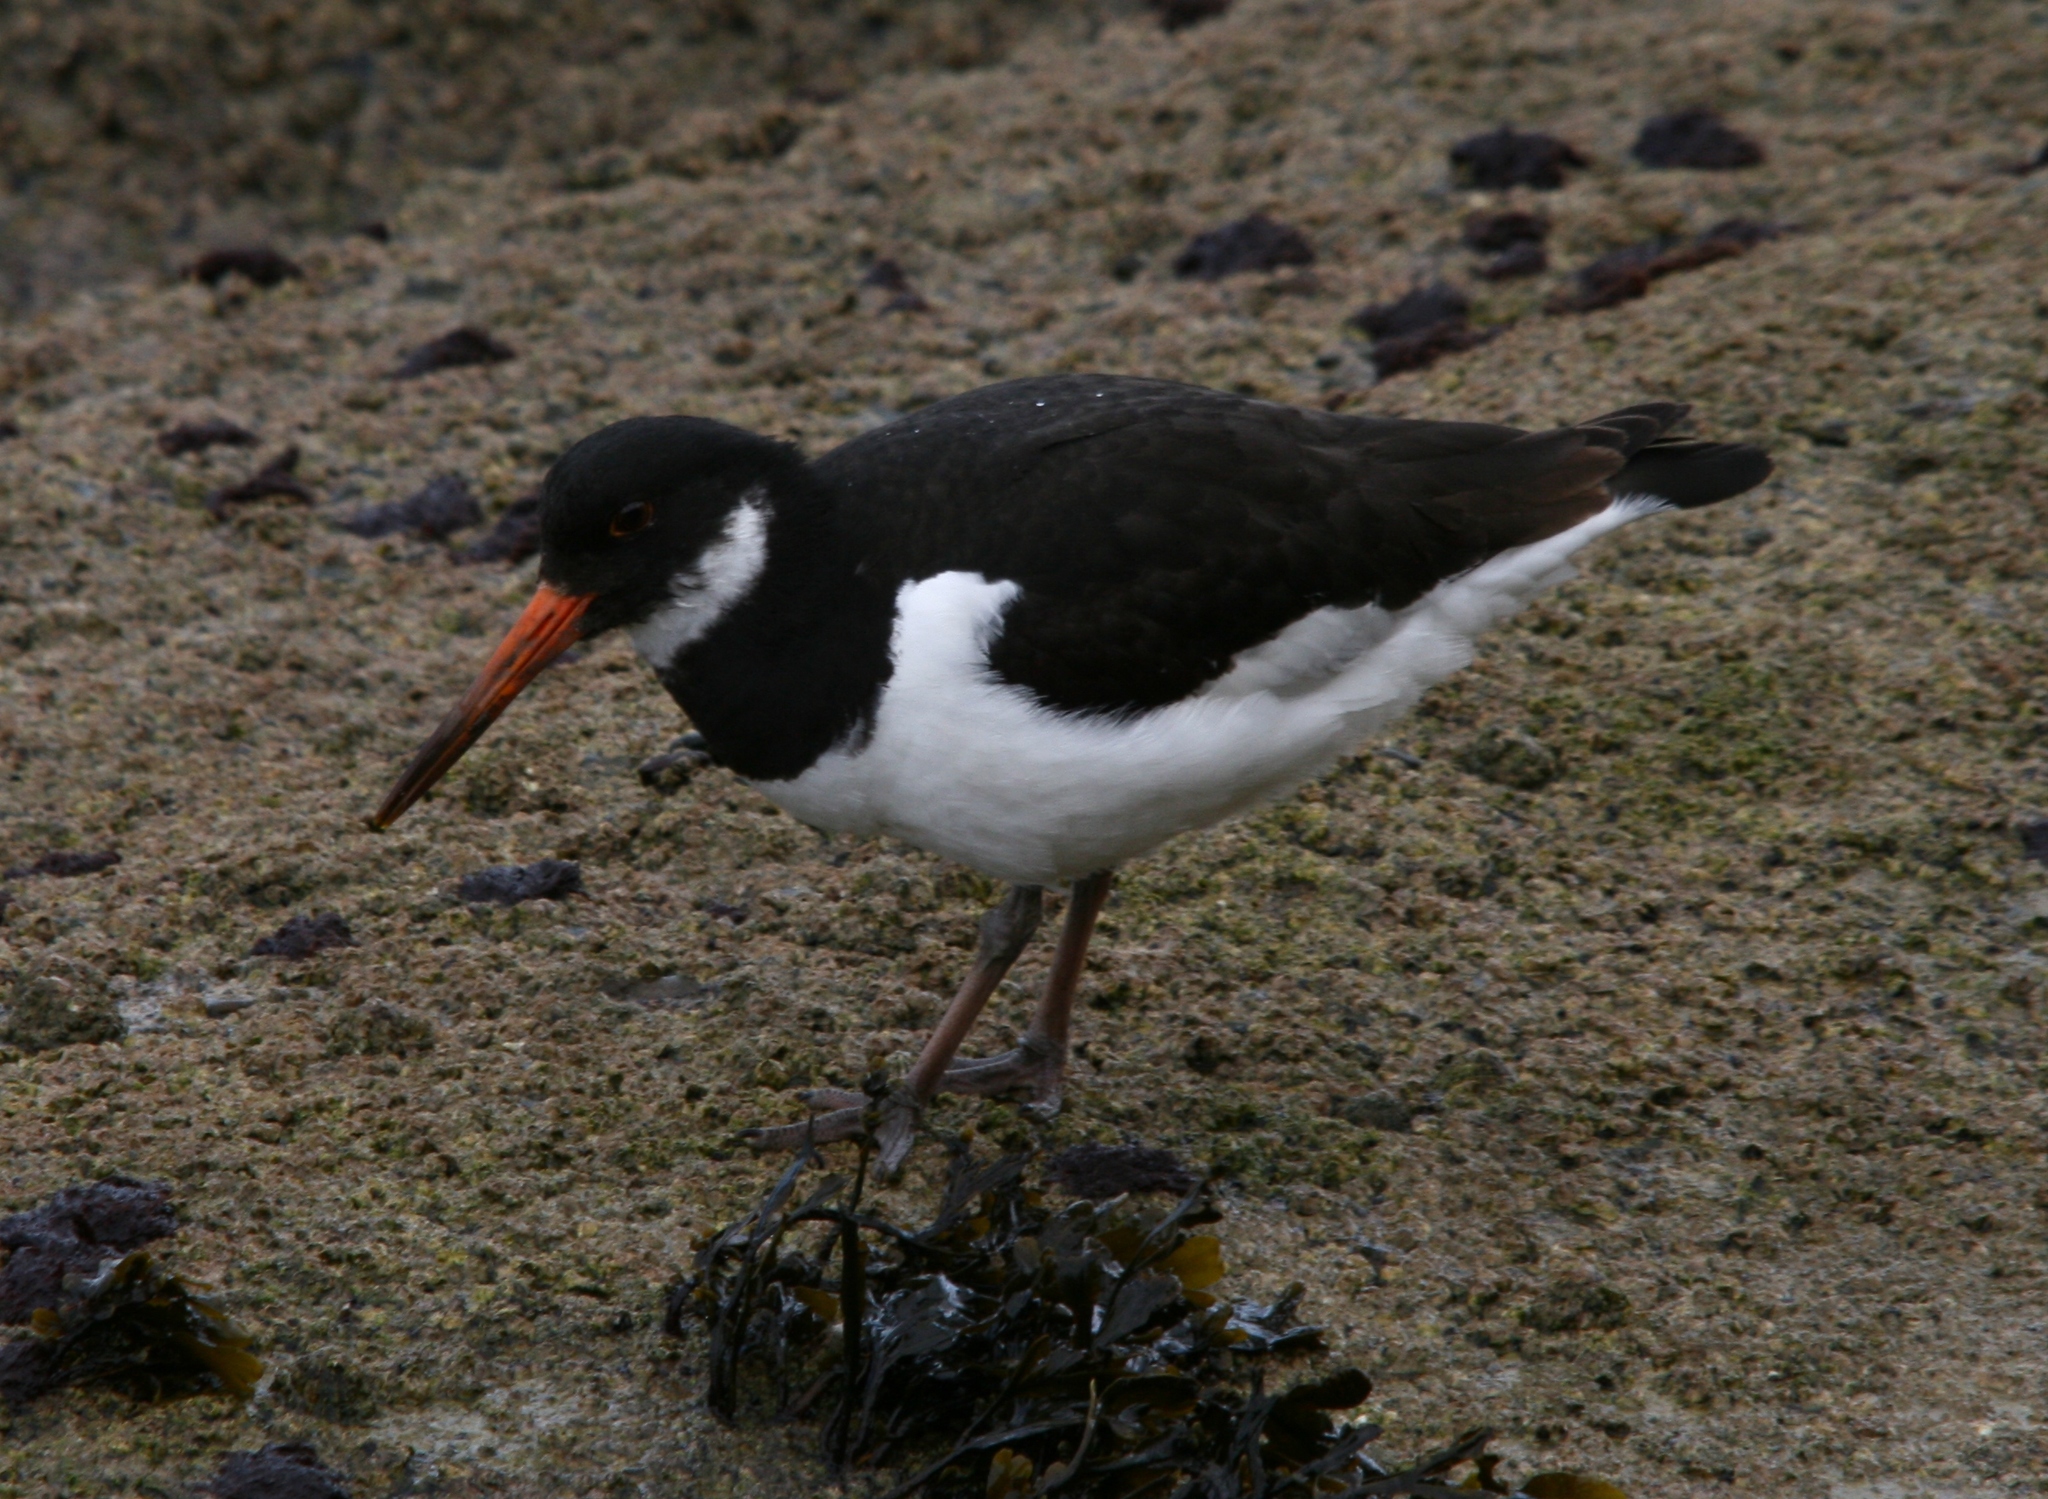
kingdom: Animalia
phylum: Chordata
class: Aves
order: Charadriiformes
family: Haematopodidae
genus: Haematopus
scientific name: Haematopus ostralegus
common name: Eurasian oystercatcher
